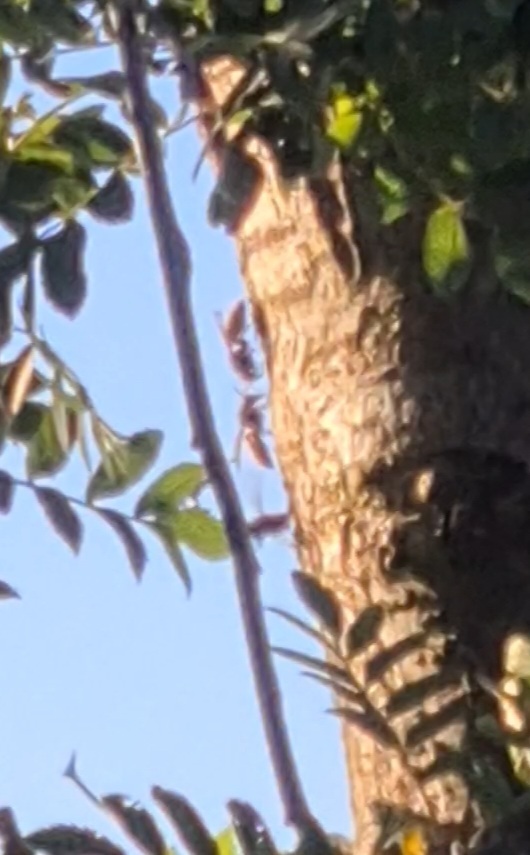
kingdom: Animalia
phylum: Arthropoda
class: Insecta
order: Hymenoptera
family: Vespidae
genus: Vespa
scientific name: Vespa crabro
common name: Hornet
